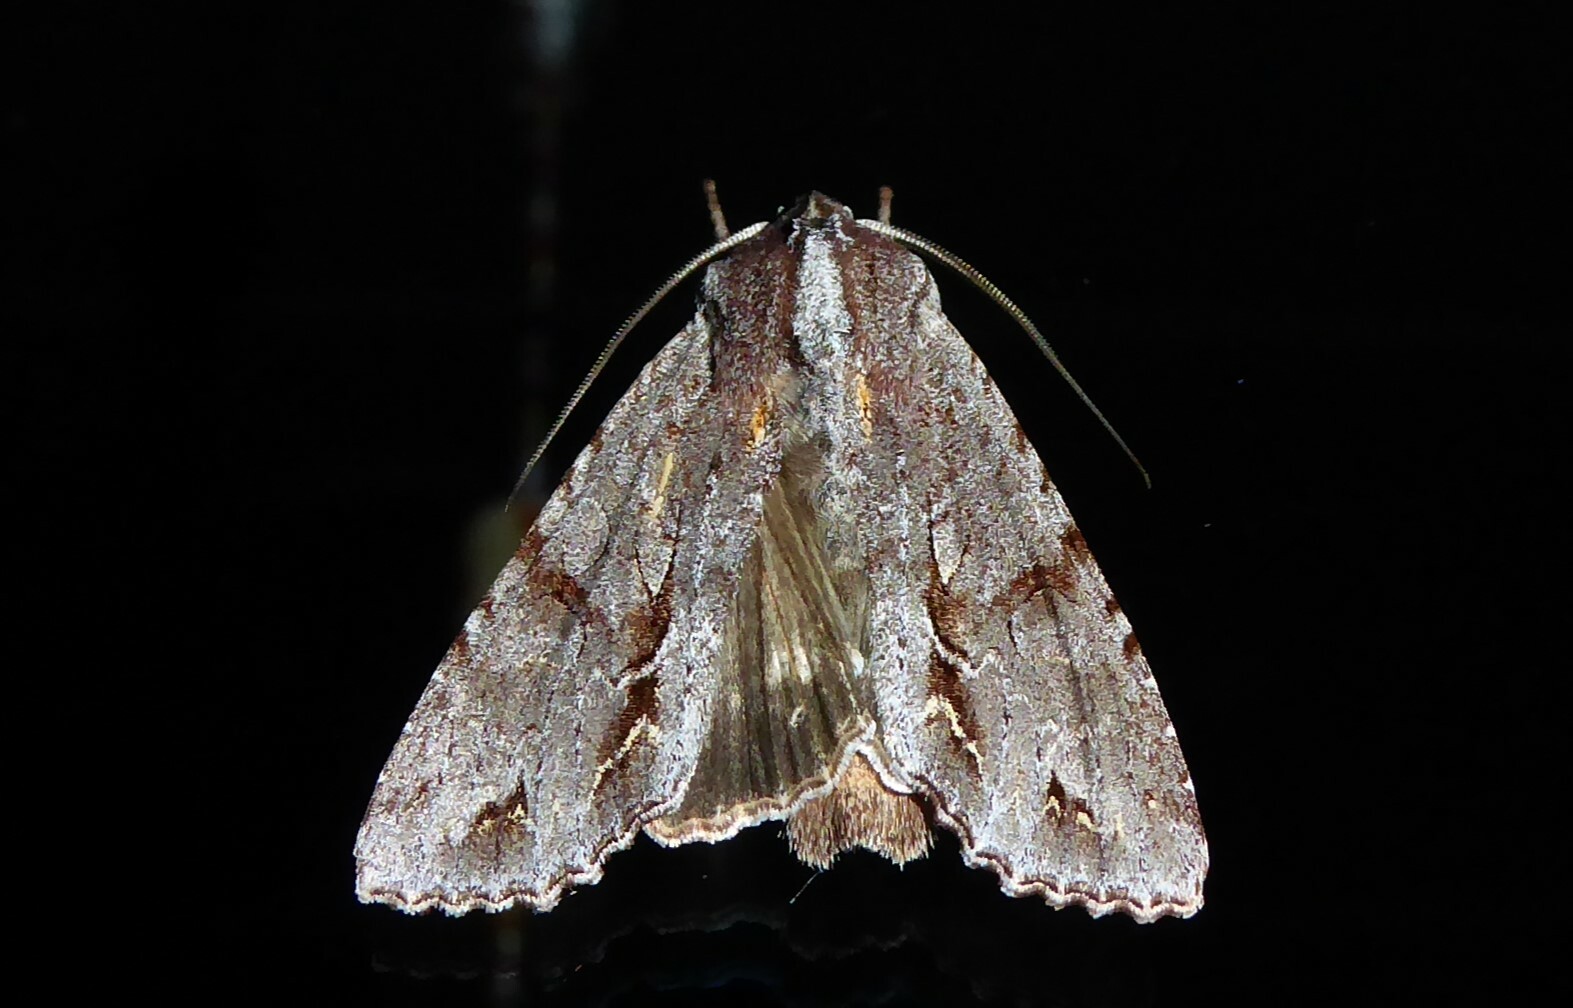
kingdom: Animalia
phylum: Arthropoda
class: Insecta
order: Lepidoptera
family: Noctuidae
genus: Ichneutica
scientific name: Ichneutica
